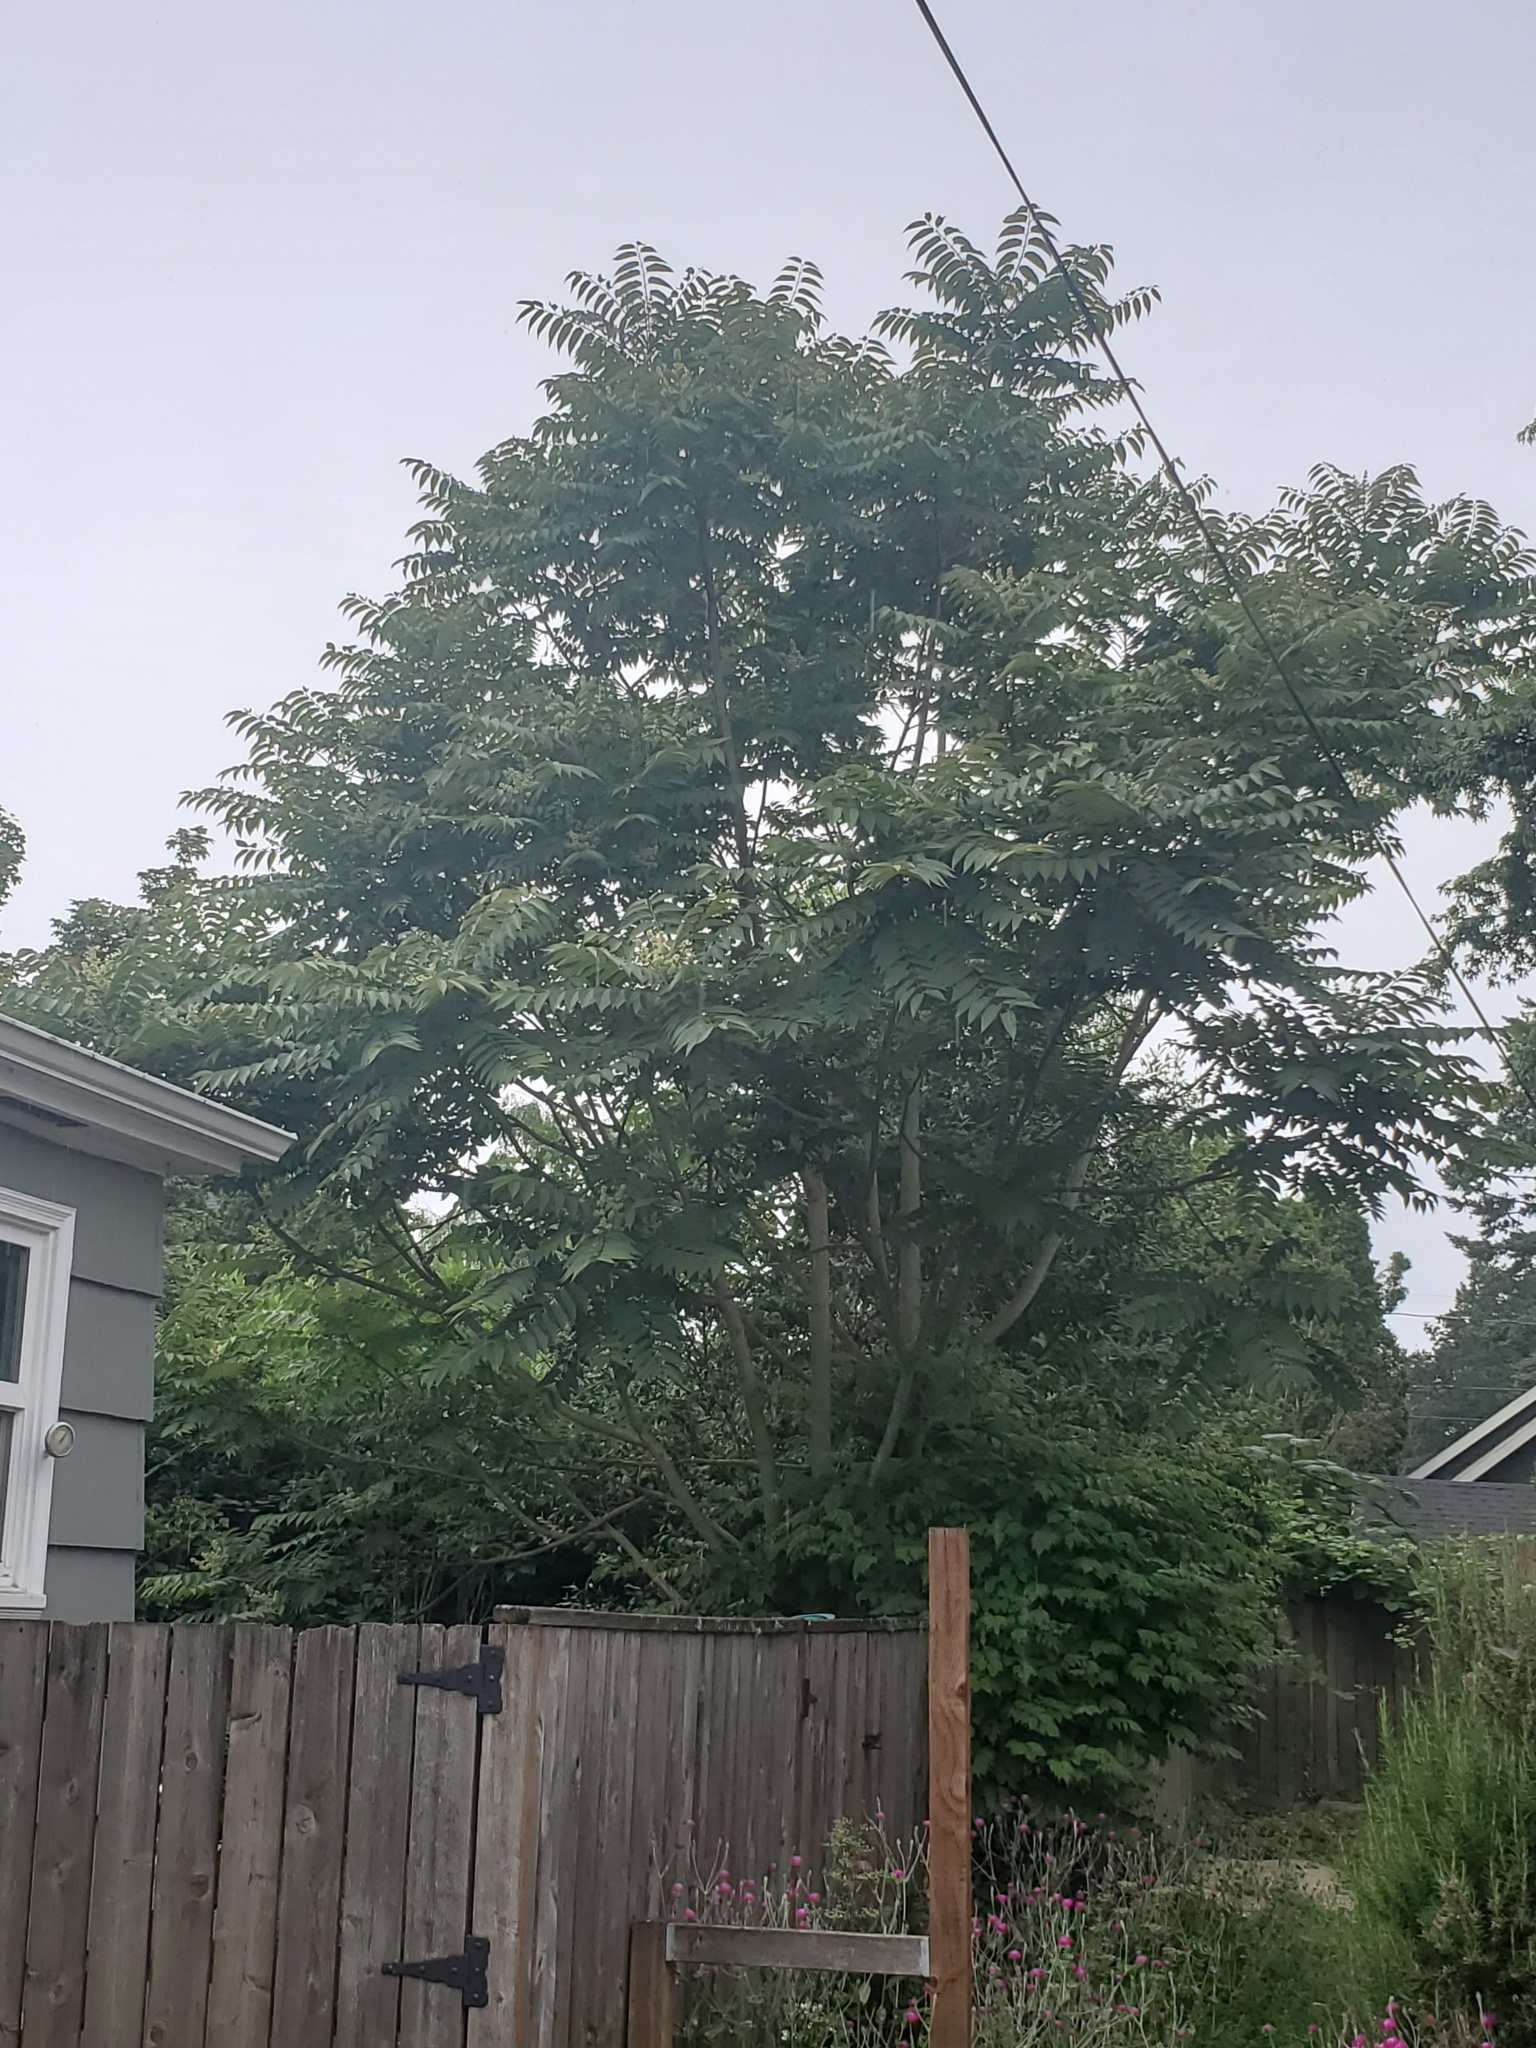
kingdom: Plantae
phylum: Tracheophyta
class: Magnoliopsida
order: Sapindales
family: Simaroubaceae
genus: Ailanthus
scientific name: Ailanthus altissima
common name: Tree-of-heaven
